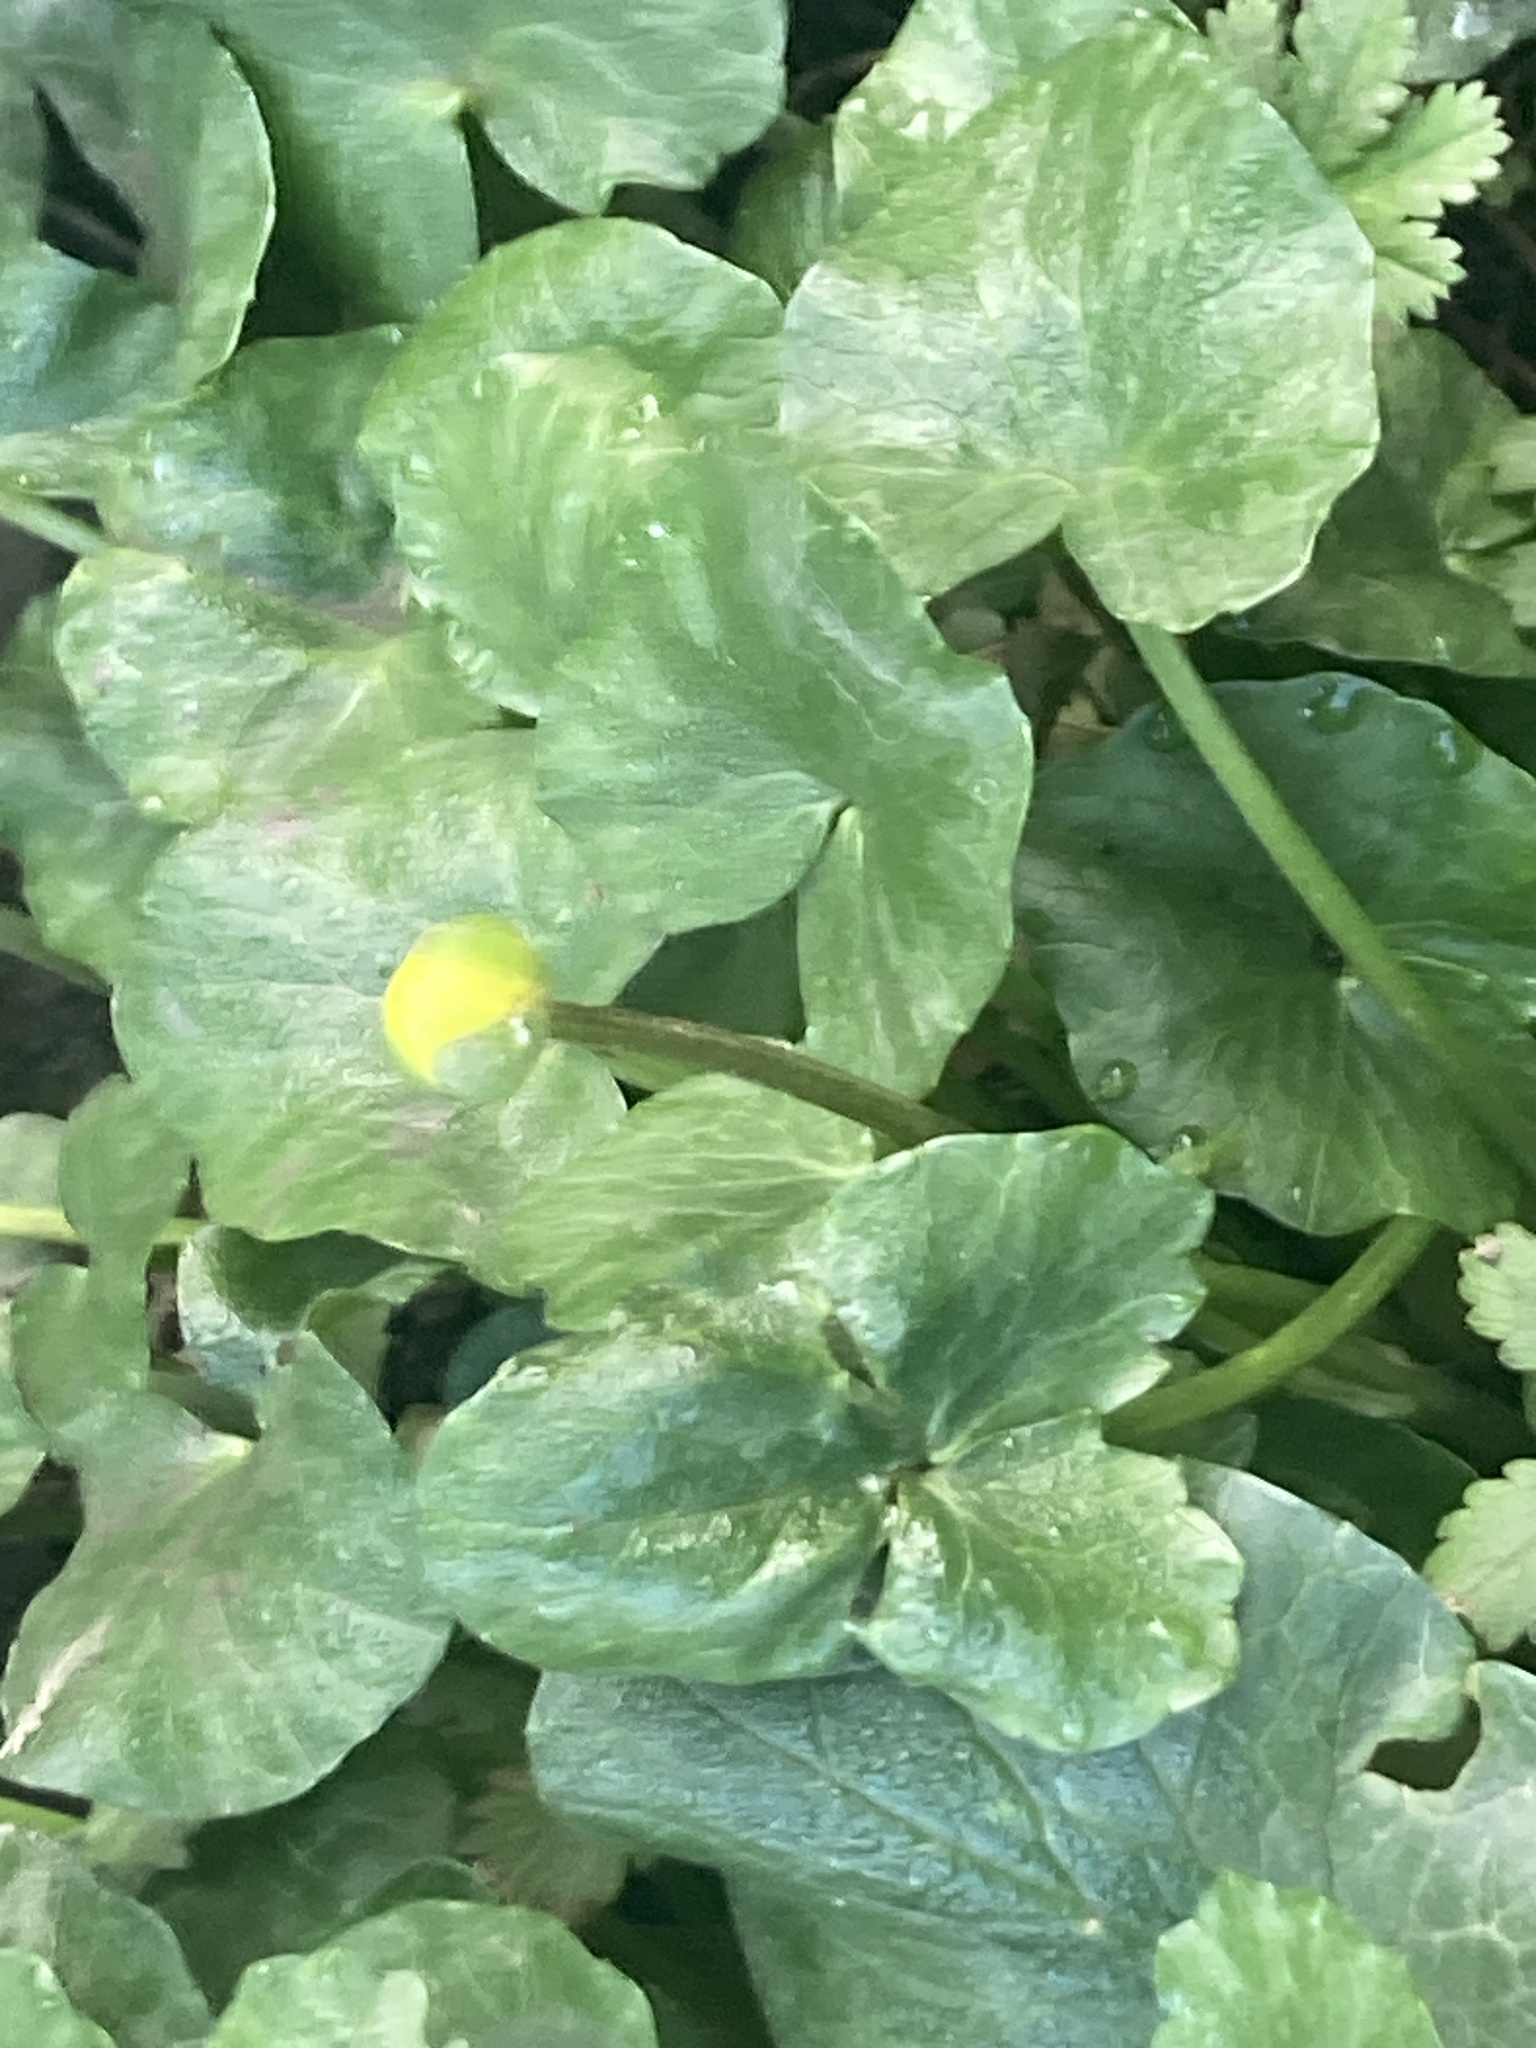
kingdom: Plantae
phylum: Tracheophyta
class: Magnoliopsida
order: Ranunculales
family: Ranunculaceae
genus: Ficaria
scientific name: Ficaria verna
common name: Lesser celandine
